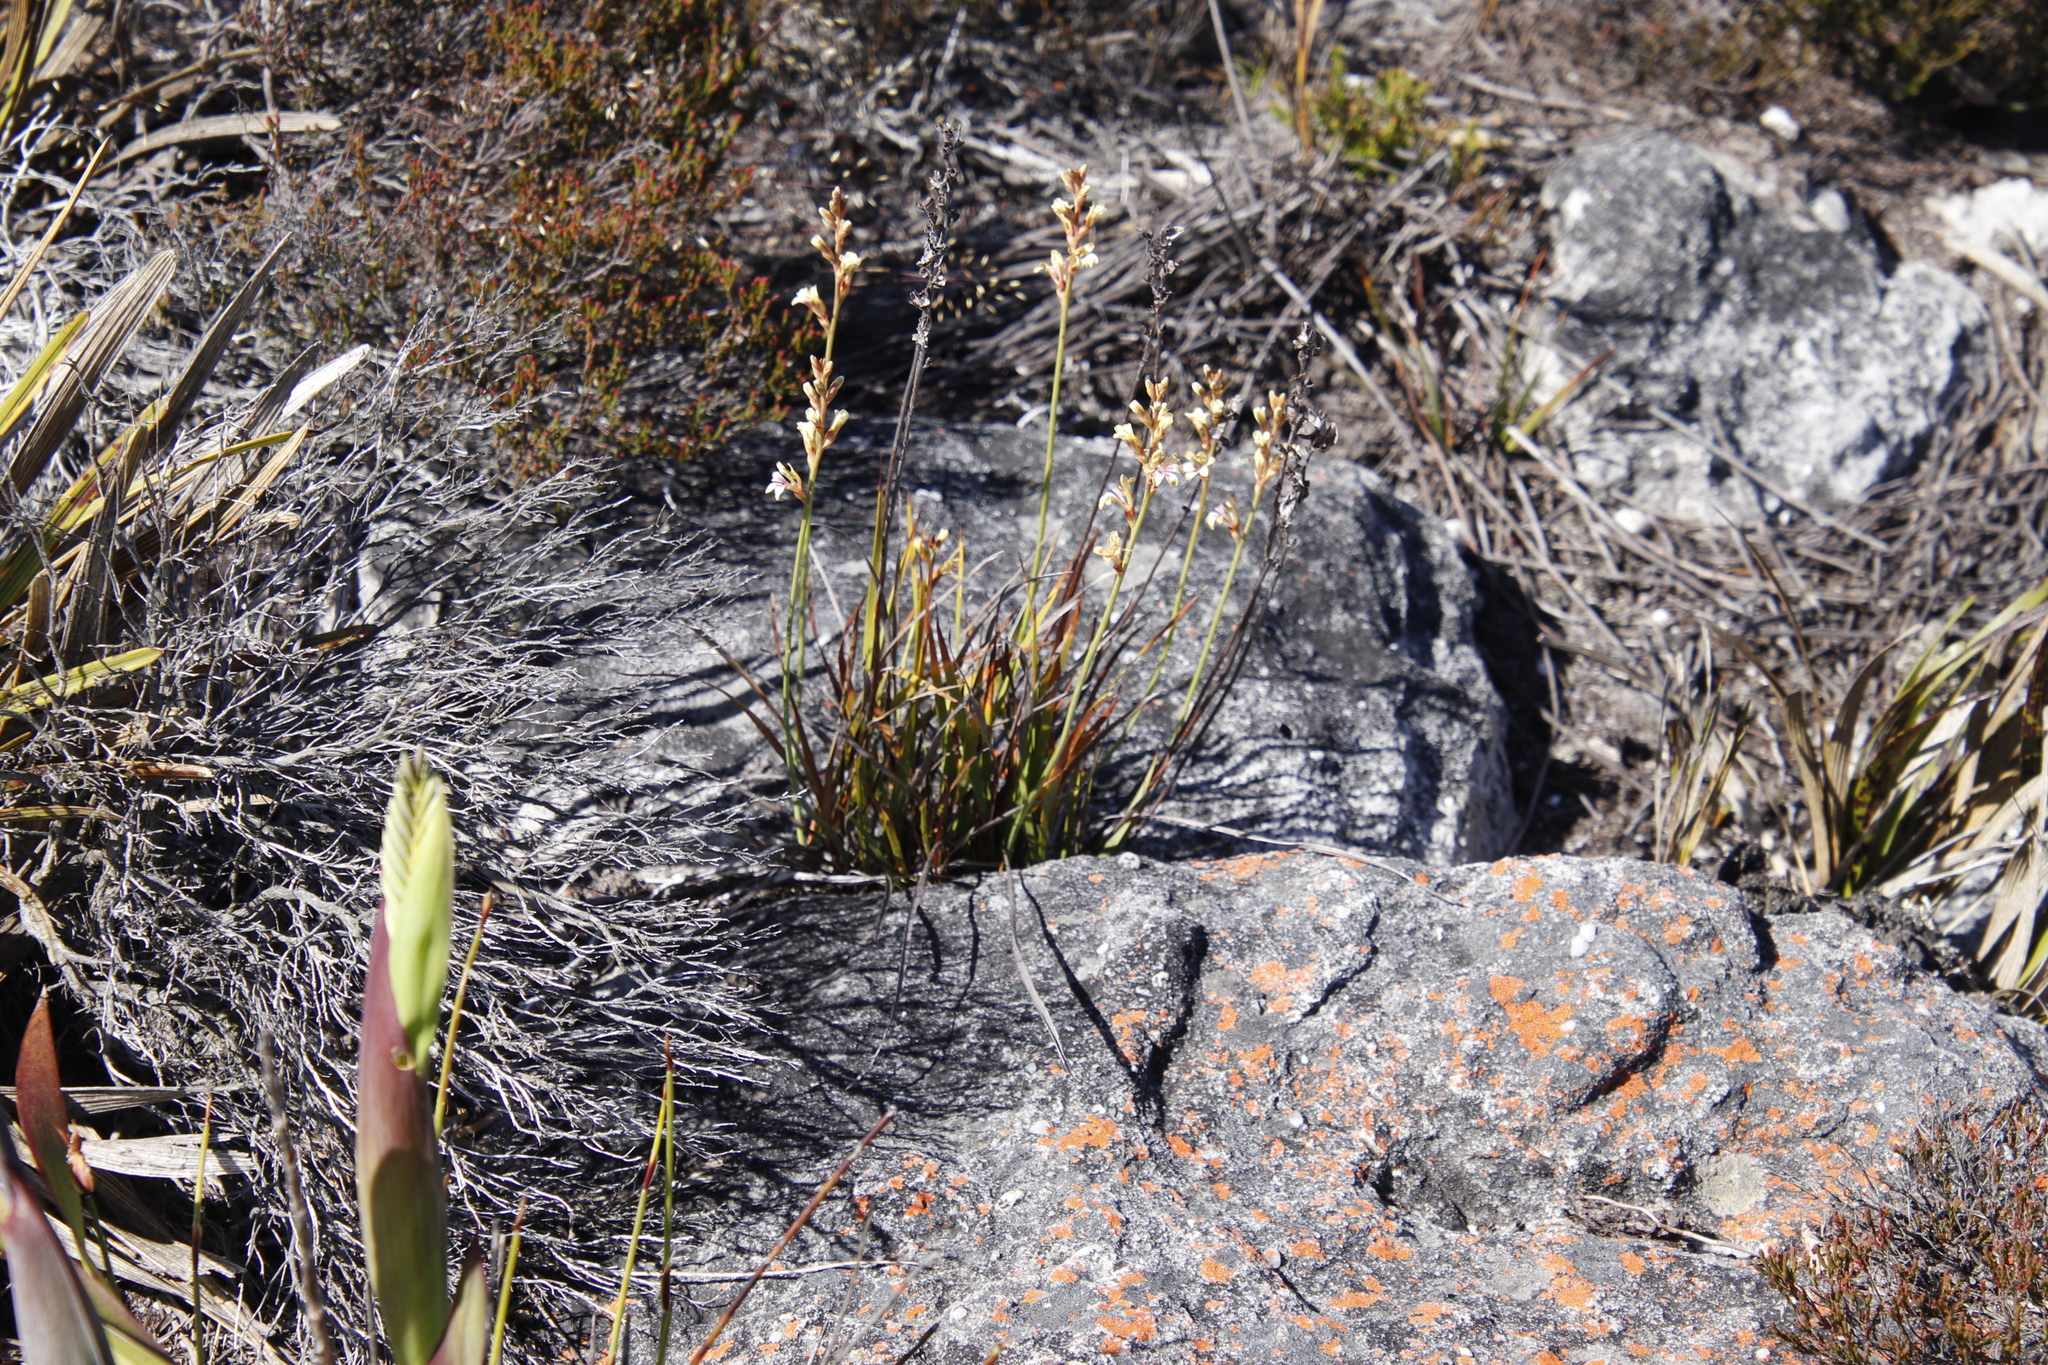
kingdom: Plantae
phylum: Tracheophyta
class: Liliopsida
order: Asparagales
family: Iridaceae
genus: Tritoniopsis
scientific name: Tritoniopsis unguicularis
